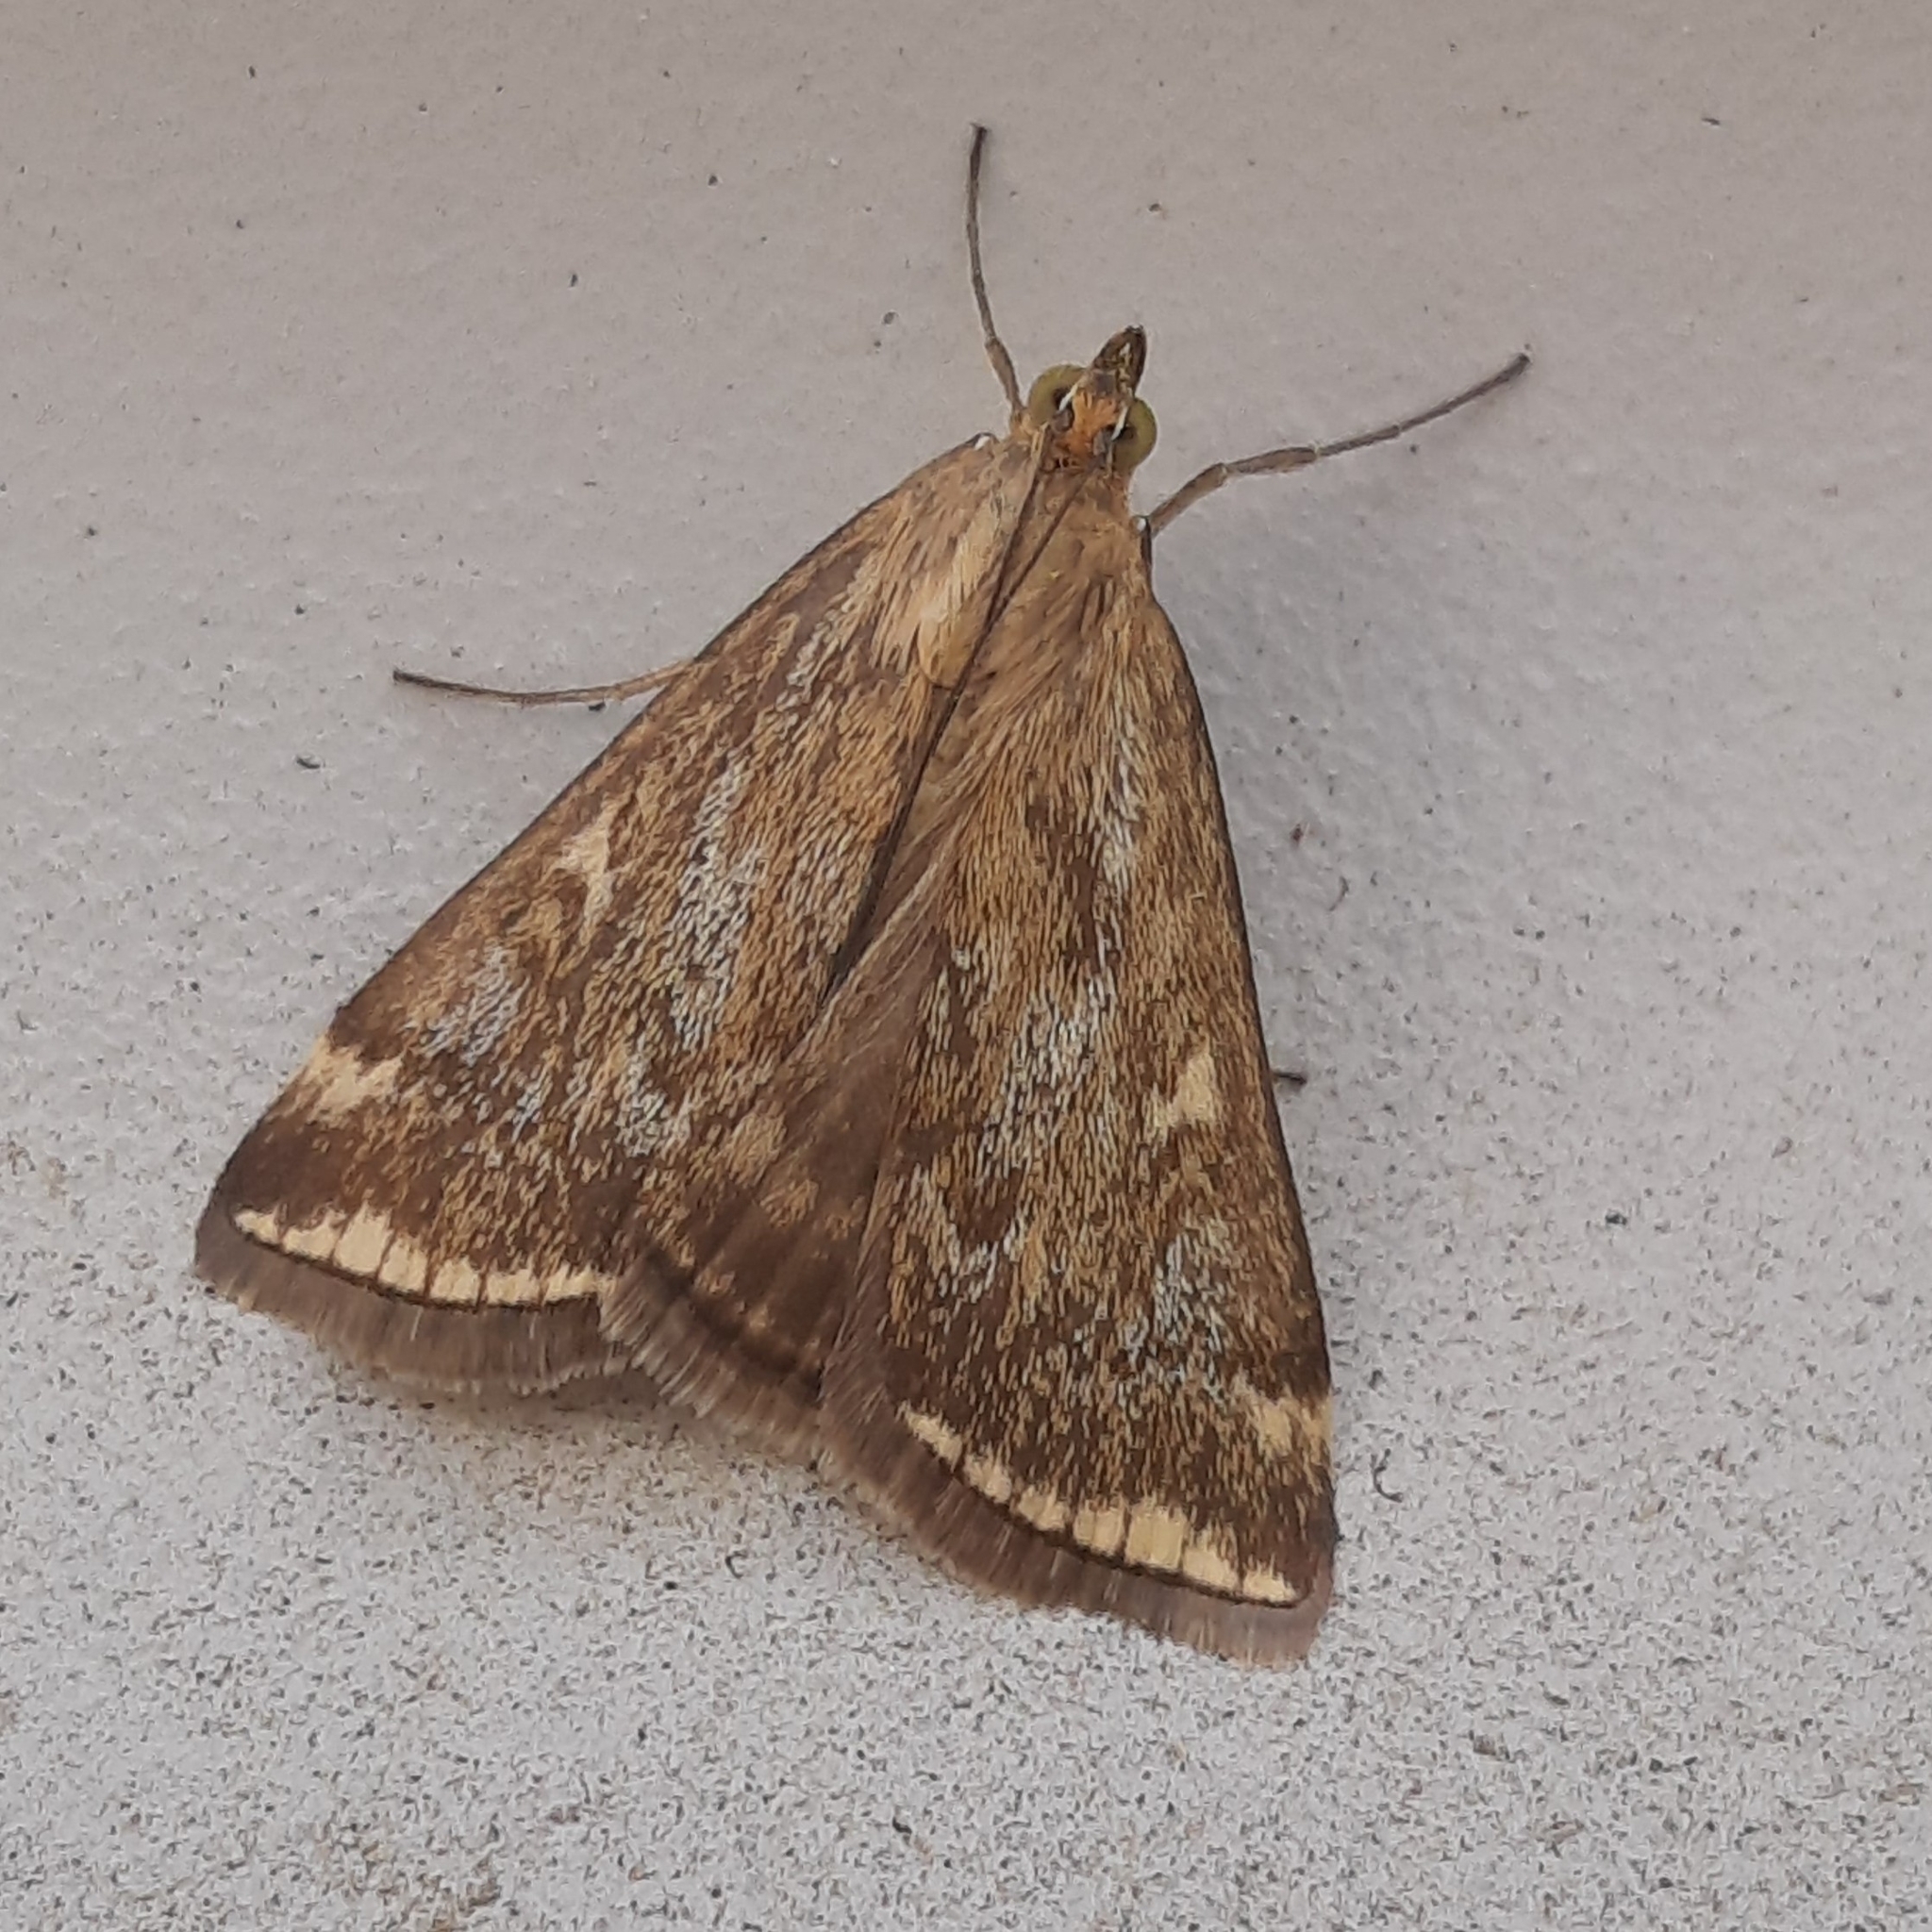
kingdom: Animalia
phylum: Arthropoda
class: Insecta
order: Lepidoptera
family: Crambidae
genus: Loxostege
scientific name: Loxostege sticticalis
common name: Crambid moth
